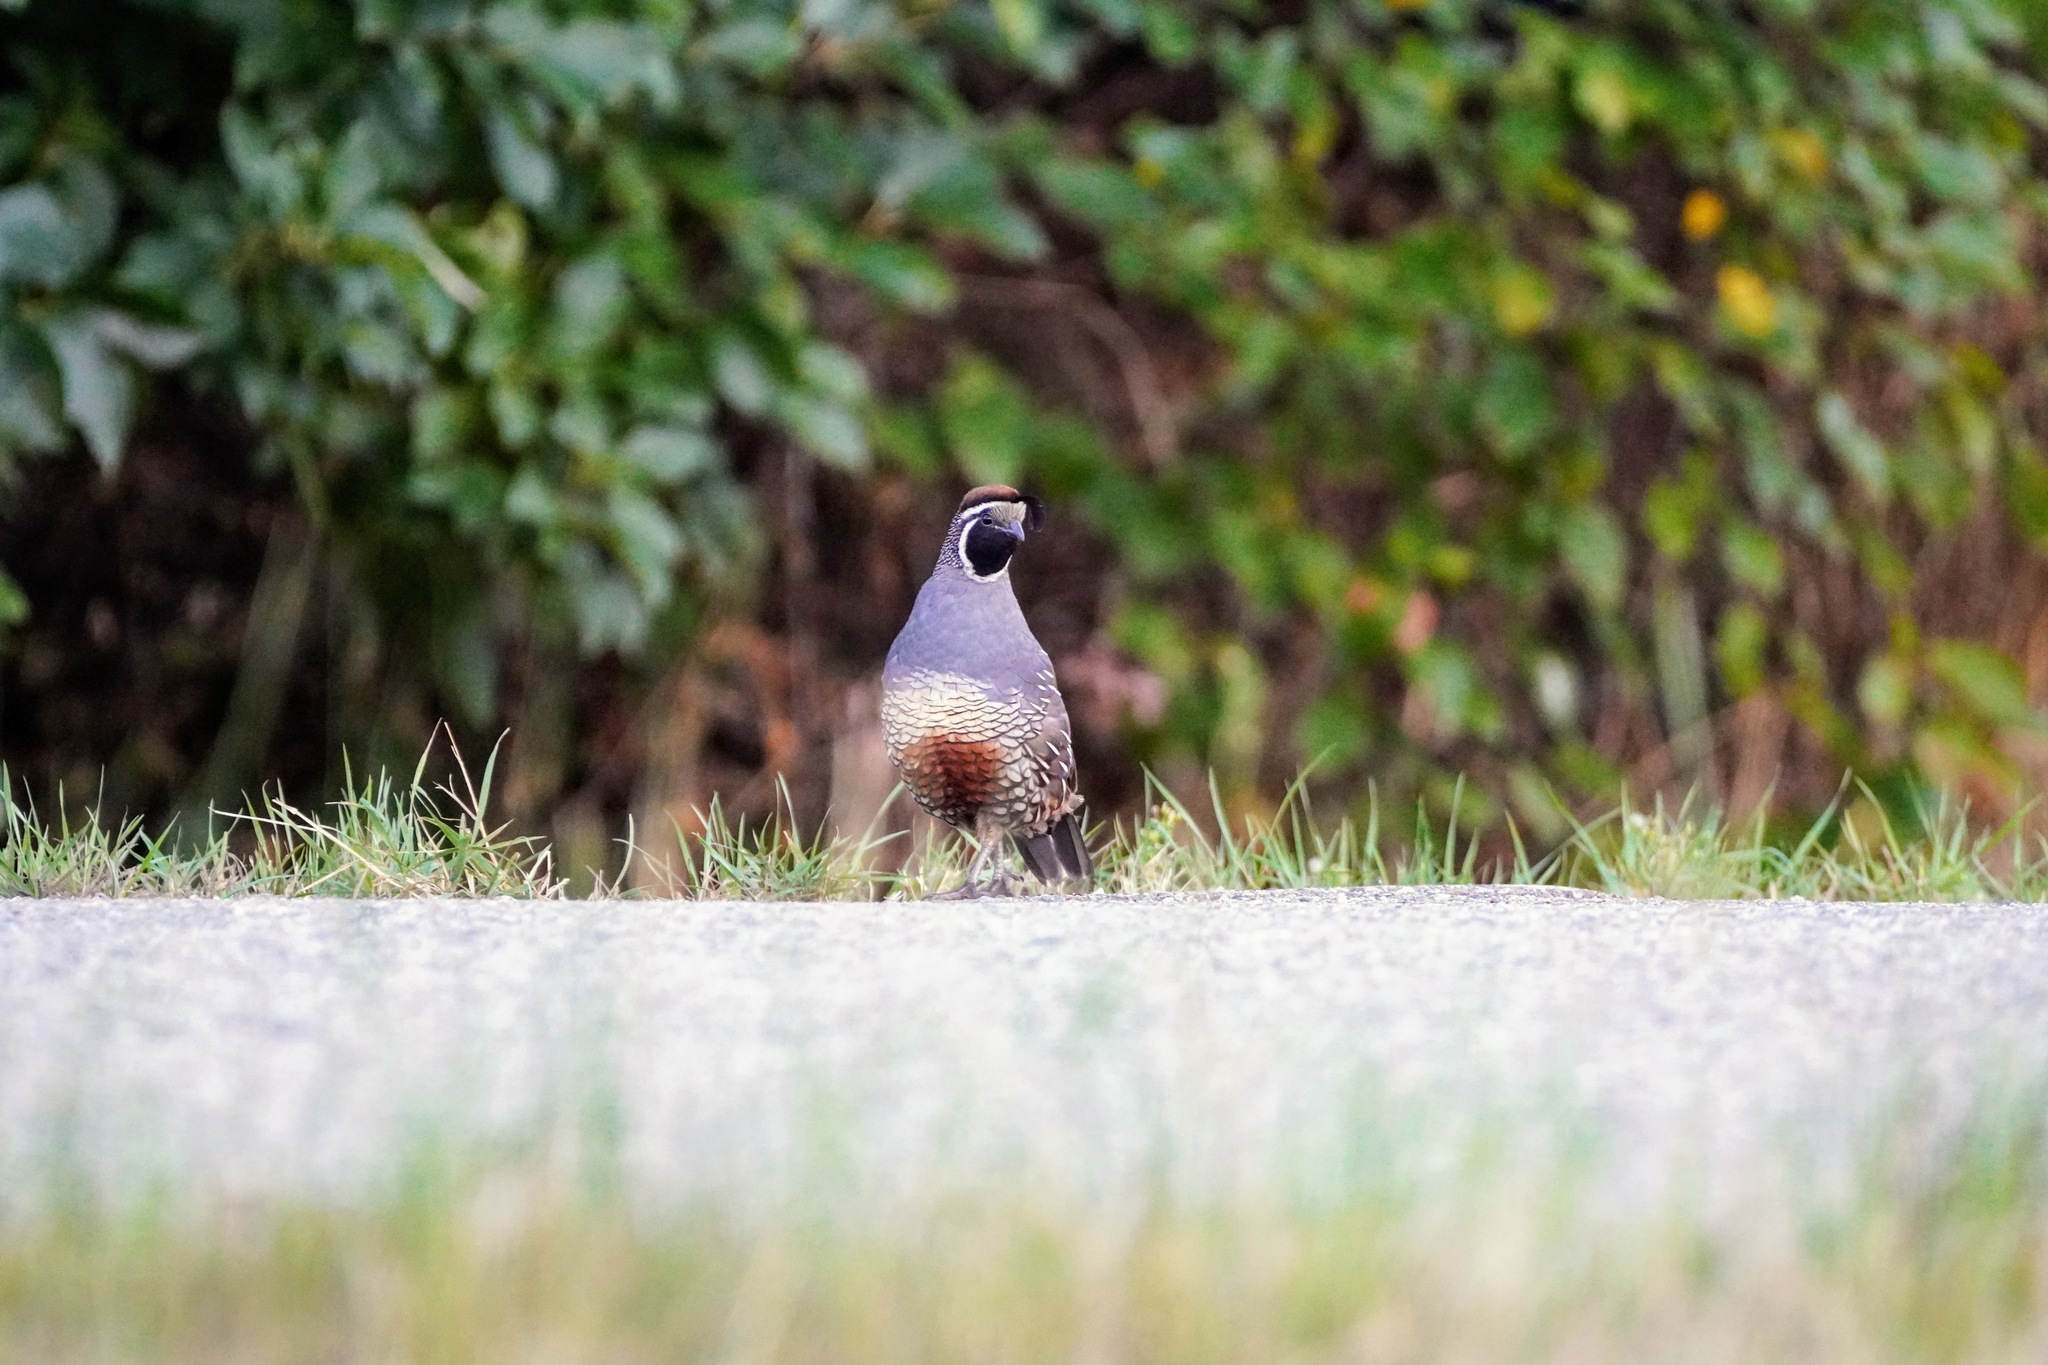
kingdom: Animalia
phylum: Chordata
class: Aves
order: Galliformes
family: Odontophoridae
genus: Callipepla
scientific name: Callipepla californica
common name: California quail
